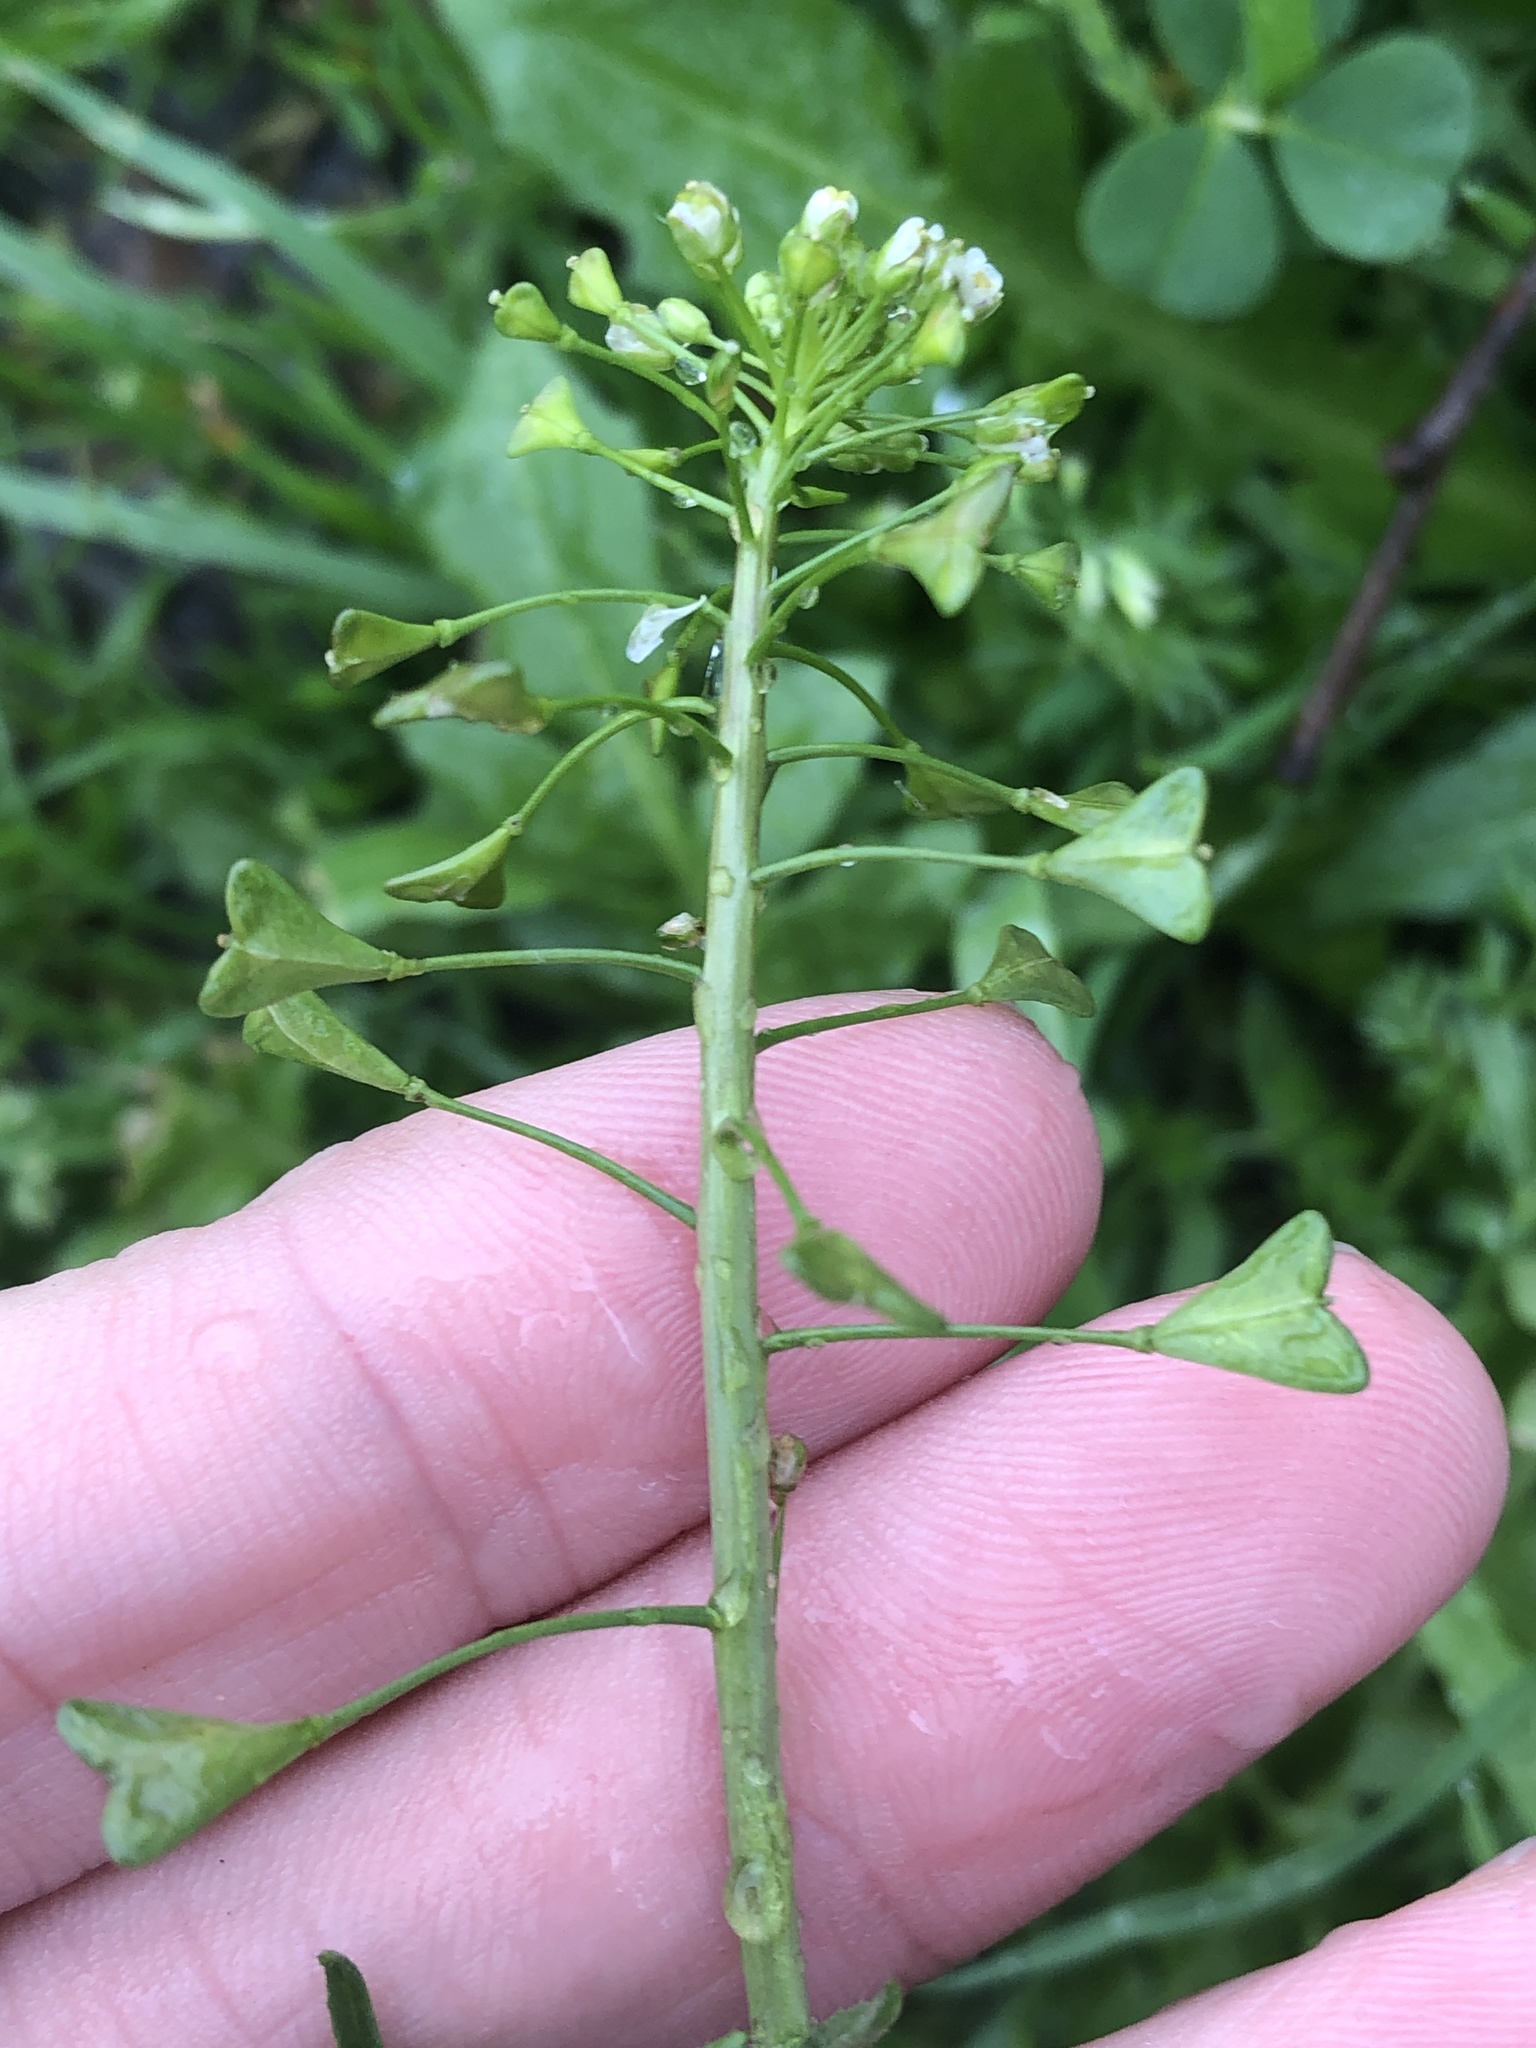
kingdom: Plantae
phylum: Tracheophyta
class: Magnoliopsida
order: Brassicales
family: Brassicaceae
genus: Capsella
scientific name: Capsella bursa-pastoris
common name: Shepherd's purse
